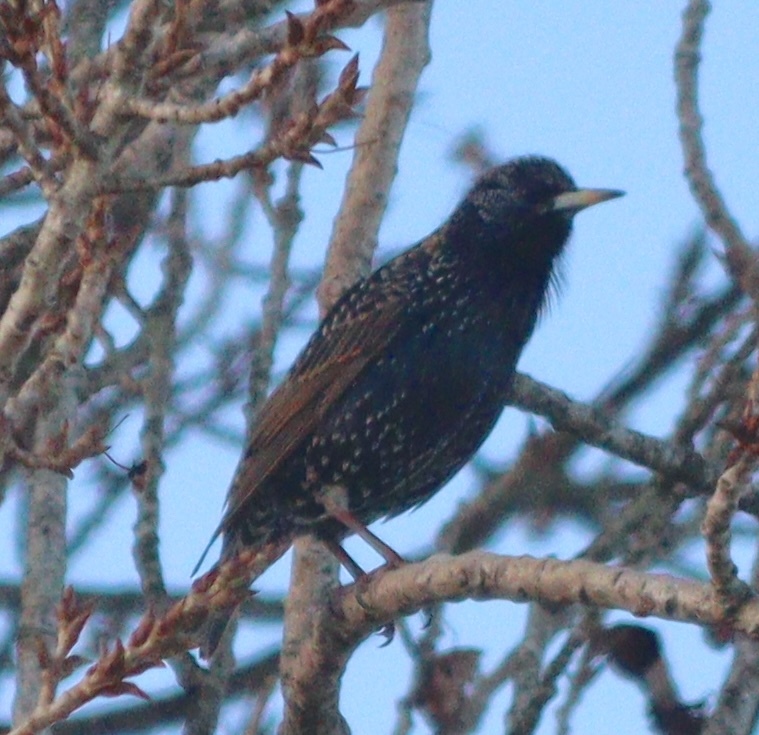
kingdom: Animalia
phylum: Chordata
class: Aves
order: Passeriformes
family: Sturnidae
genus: Sturnus
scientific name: Sturnus vulgaris
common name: Common starling
